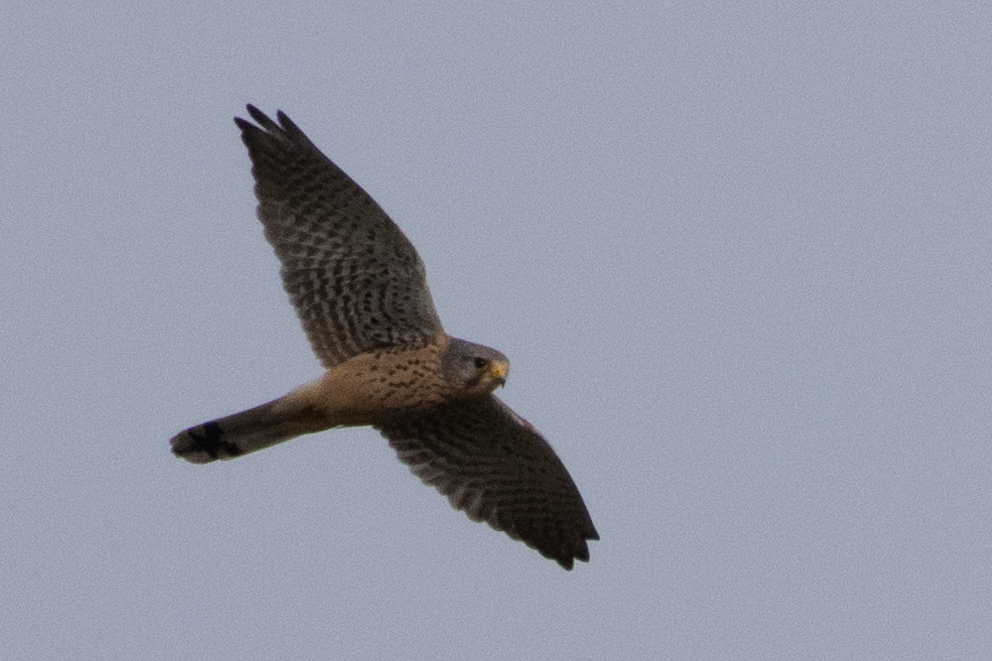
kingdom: Animalia
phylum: Chordata
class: Aves
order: Falconiformes
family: Falconidae
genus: Falco
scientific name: Falco tinnunculus
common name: Common kestrel
